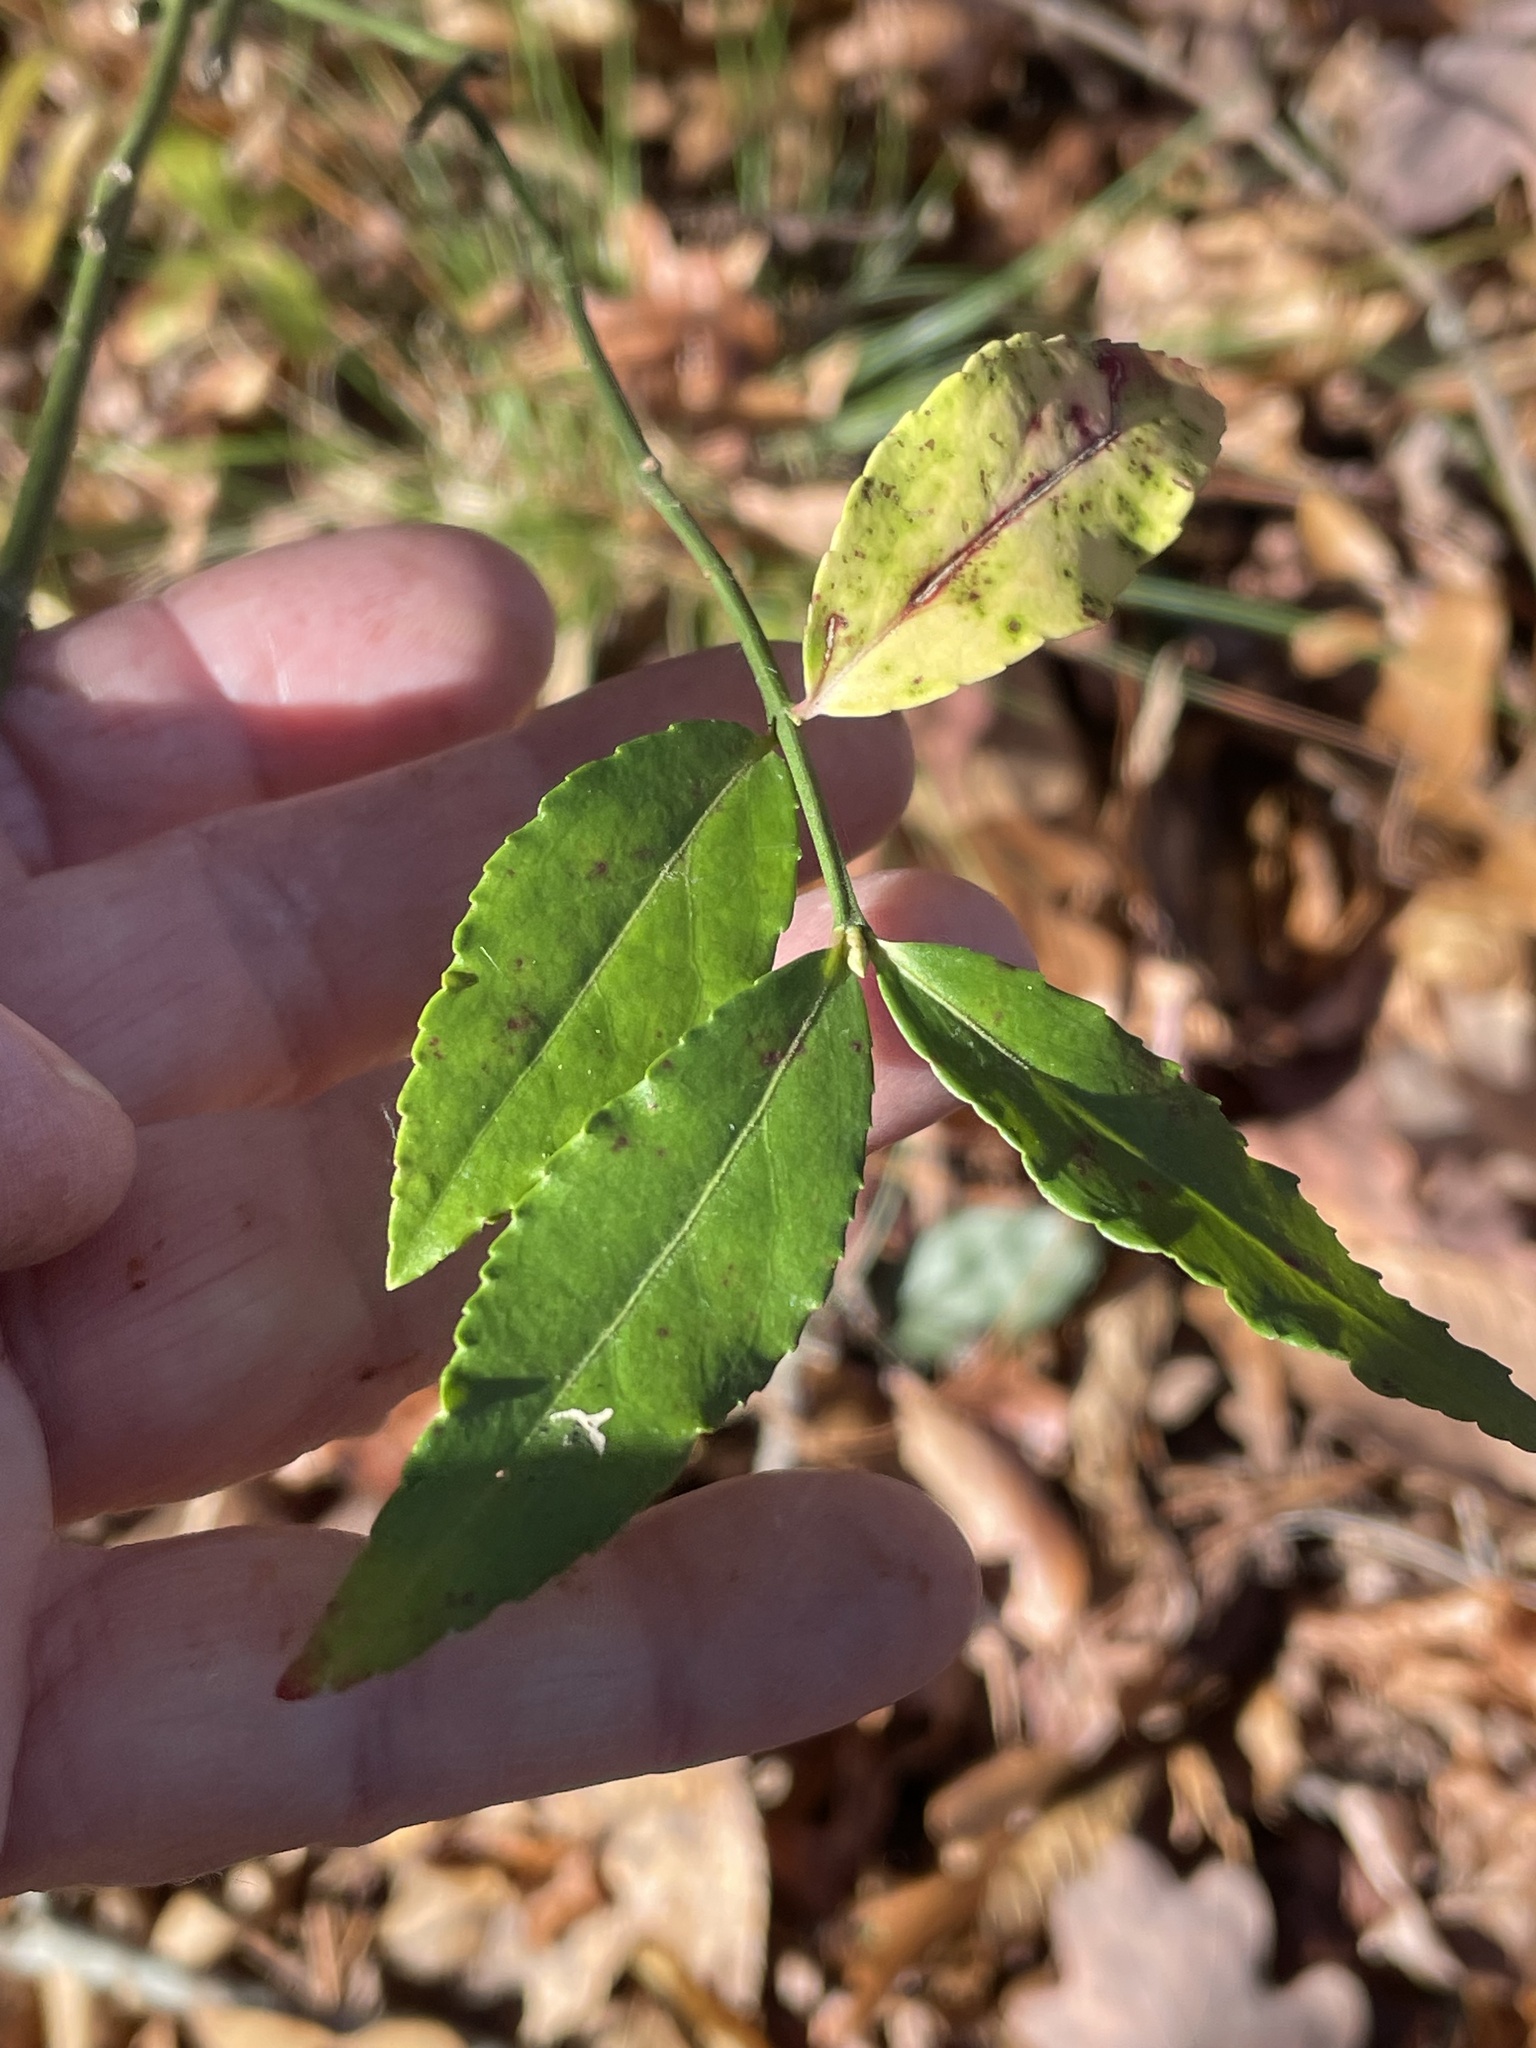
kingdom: Plantae
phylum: Tracheophyta
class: Magnoliopsida
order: Celastrales
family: Celastraceae
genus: Euonymus
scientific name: Euonymus americanus
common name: Bursting-heart
